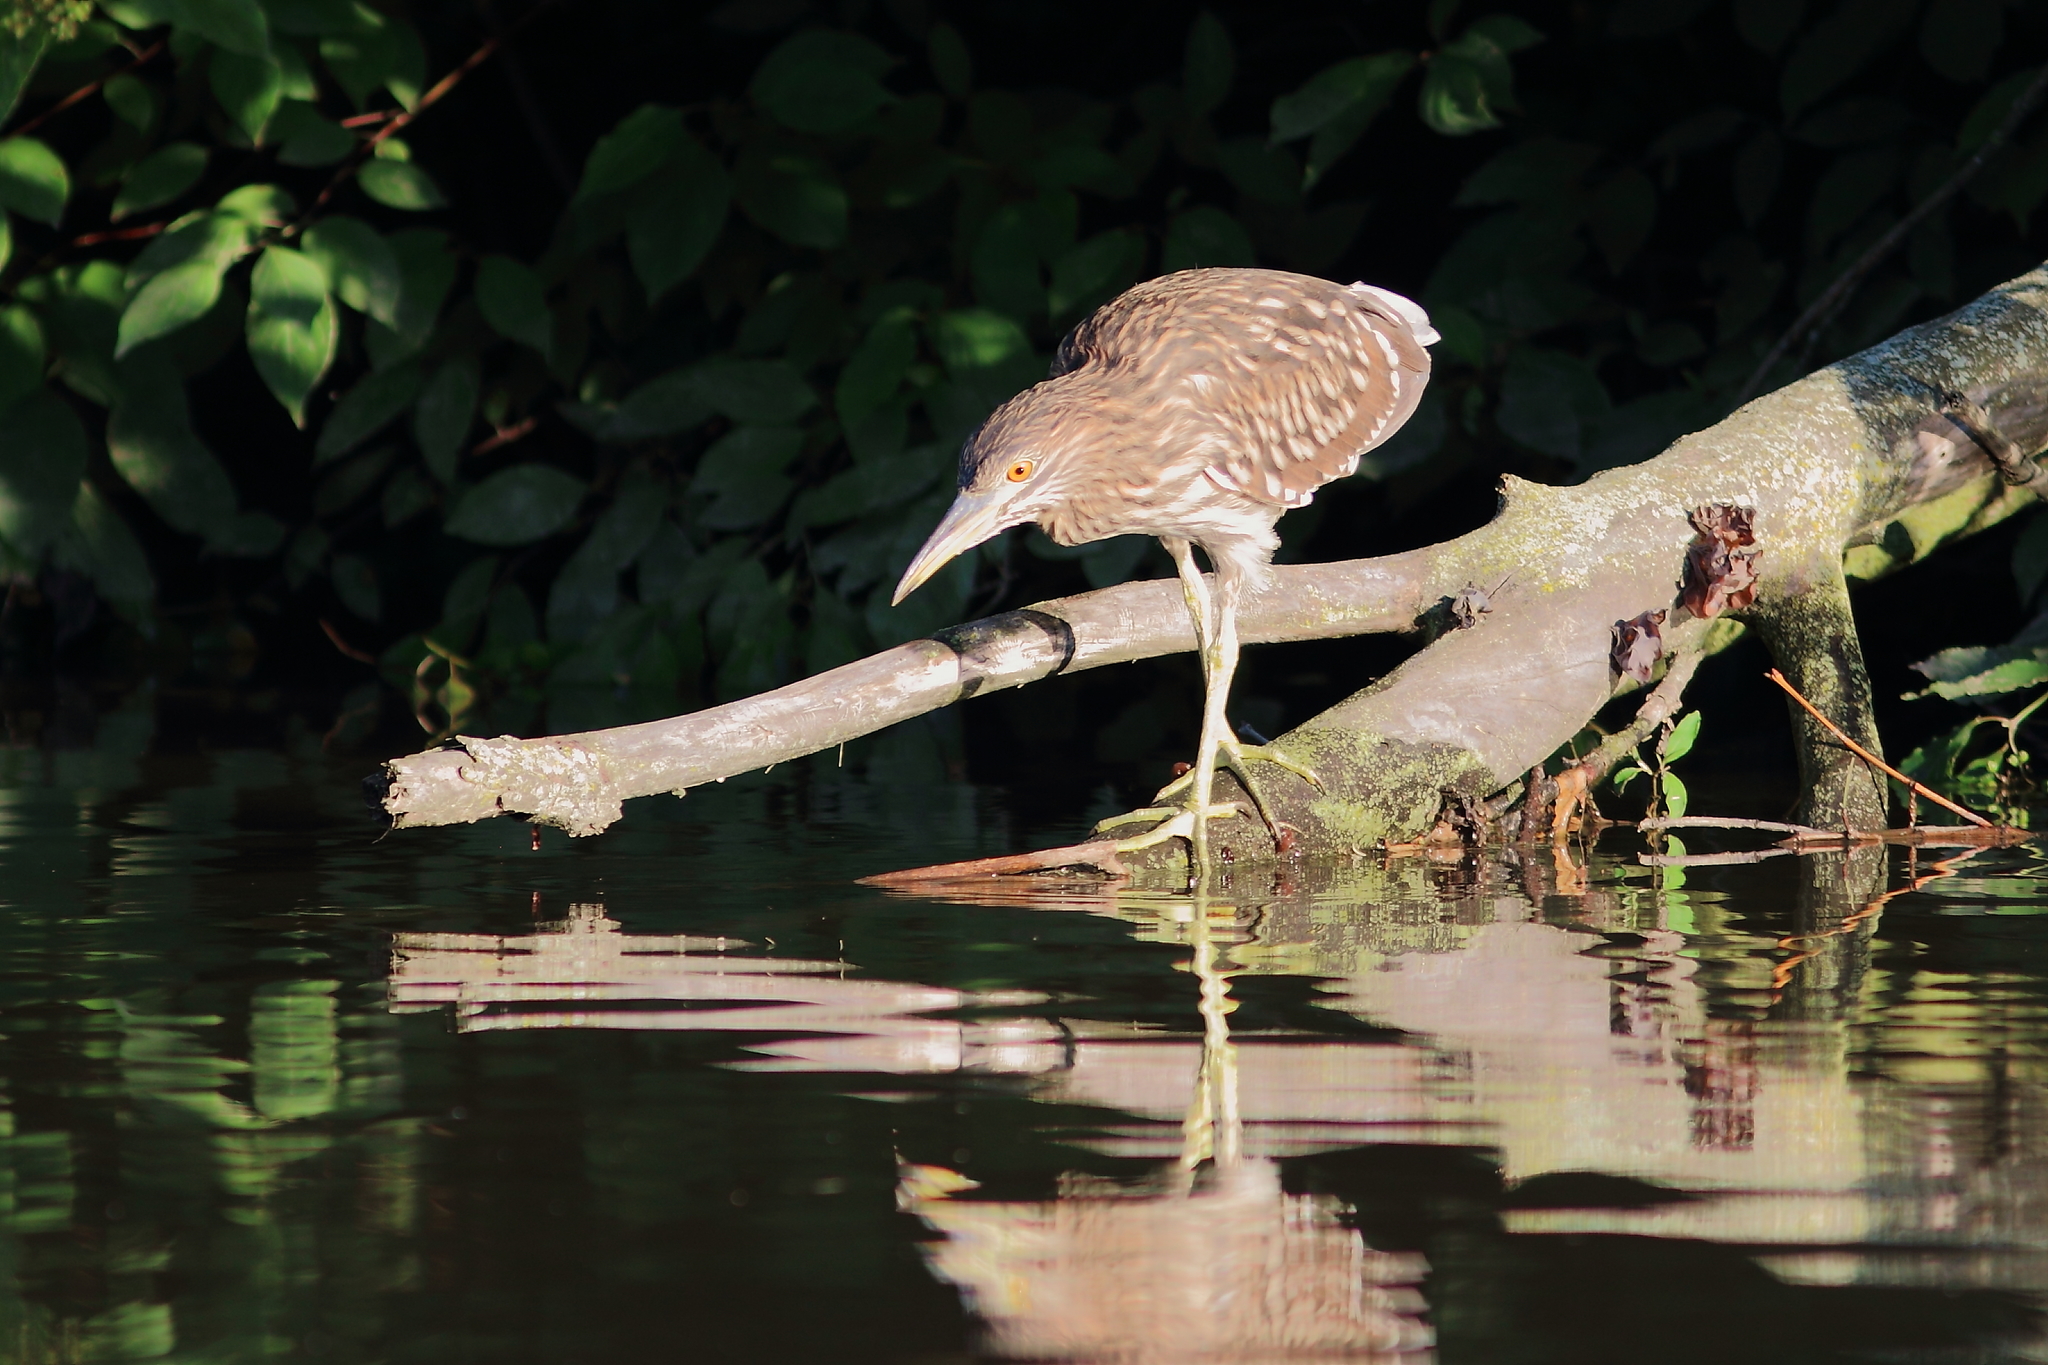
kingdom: Animalia
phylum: Chordata
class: Aves
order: Pelecaniformes
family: Ardeidae
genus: Nycticorax
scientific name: Nycticorax nycticorax
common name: Black-crowned night heron
